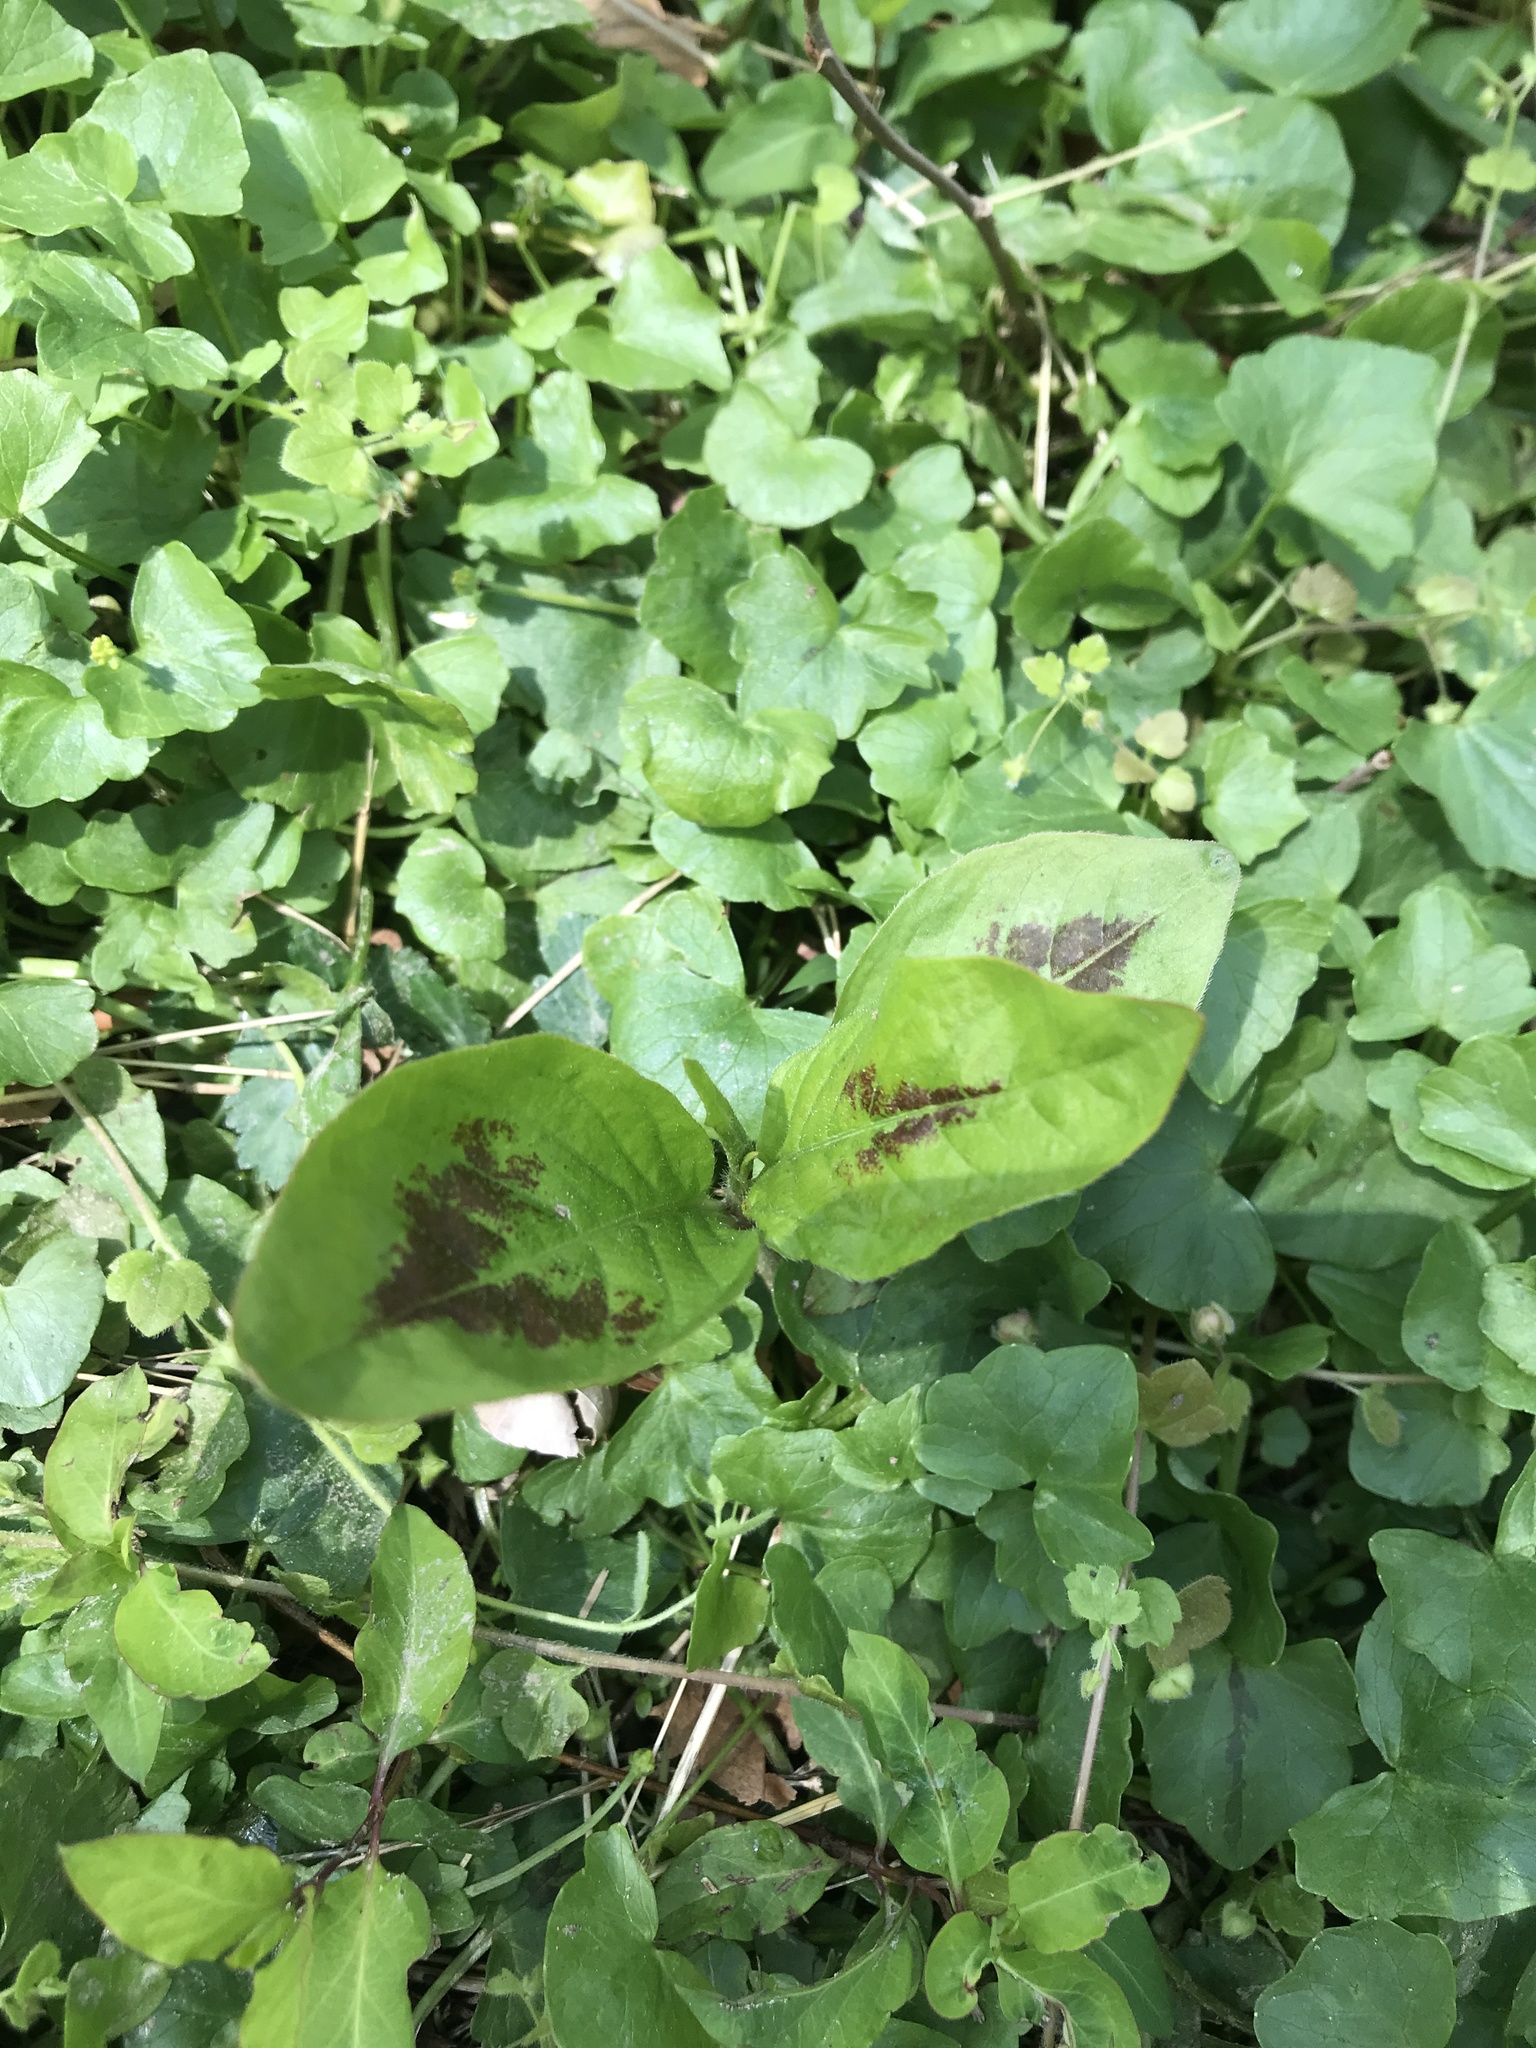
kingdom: Plantae
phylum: Tracheophyta
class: Magnoliopsida
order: Caryophyllales
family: Polygonaceae
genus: Persicaria
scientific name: Persicaria virginiana
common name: Jumpseed
